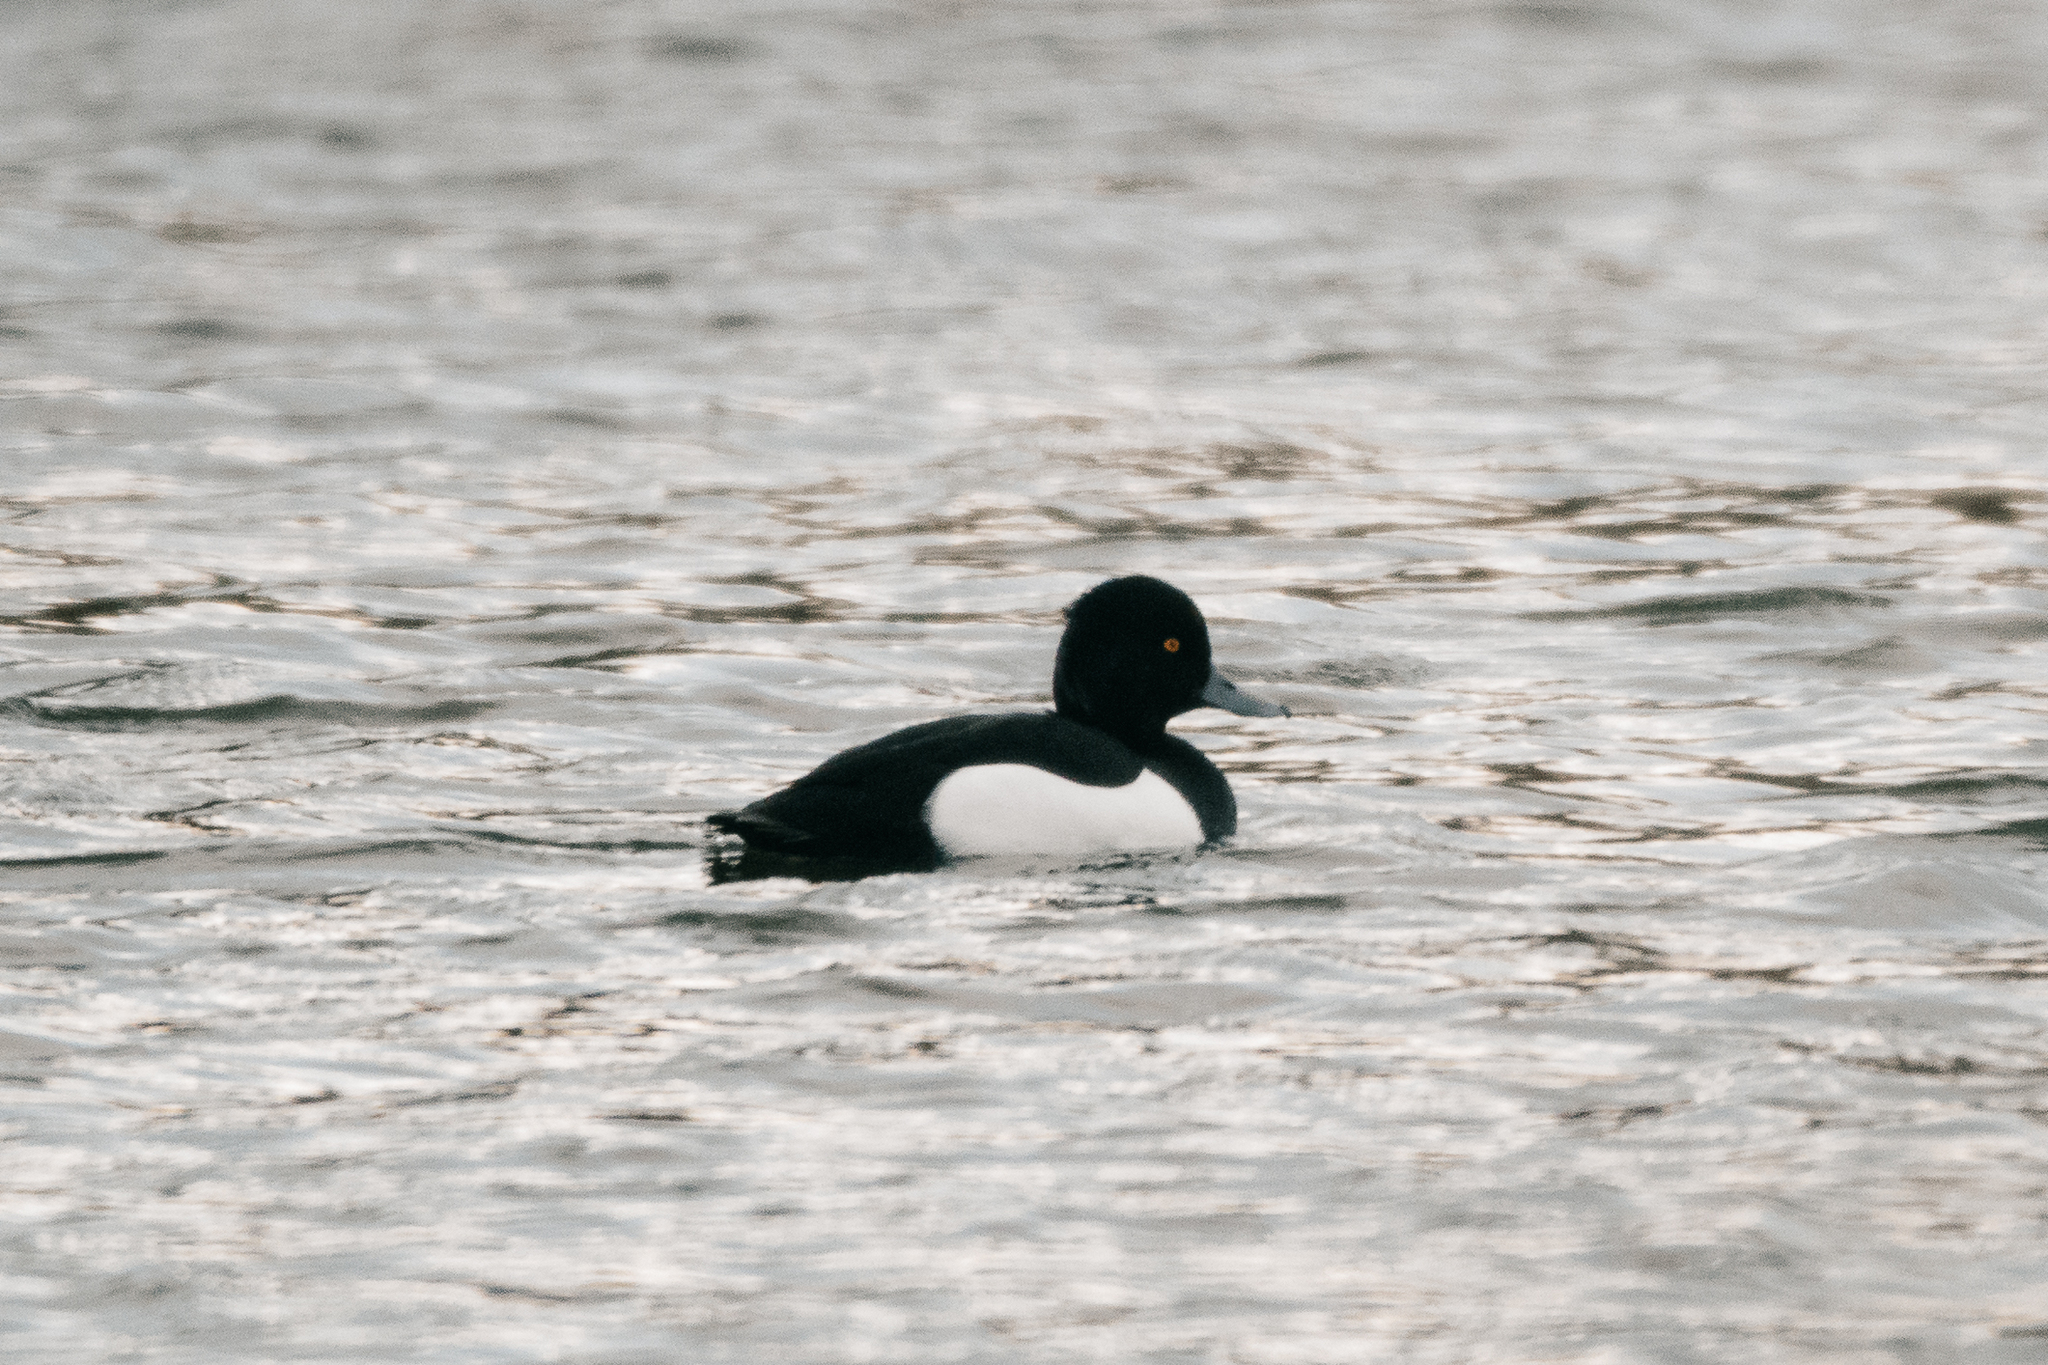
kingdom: Animalia
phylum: Chordata
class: Aves
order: Anseriformes
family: Anatidae
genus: Aythya
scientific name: Aythya fuligula
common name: Tufted duck
